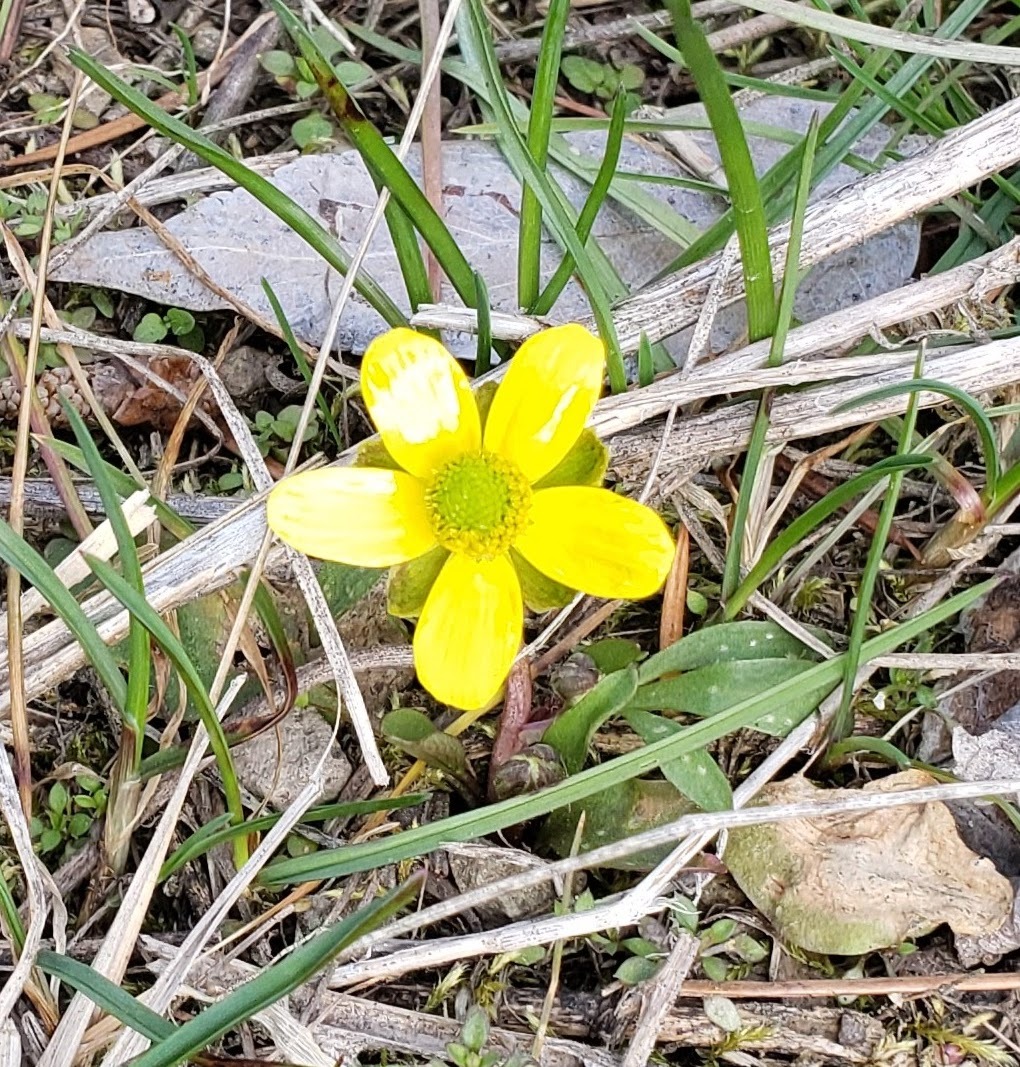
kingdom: Plantae
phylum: Tracheophyta
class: Magnoliopsida
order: Ranunculales
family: Ranunculaceae
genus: Ranunculus
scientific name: Ranunculus glaberrimus
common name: Sagebrush buttercup
